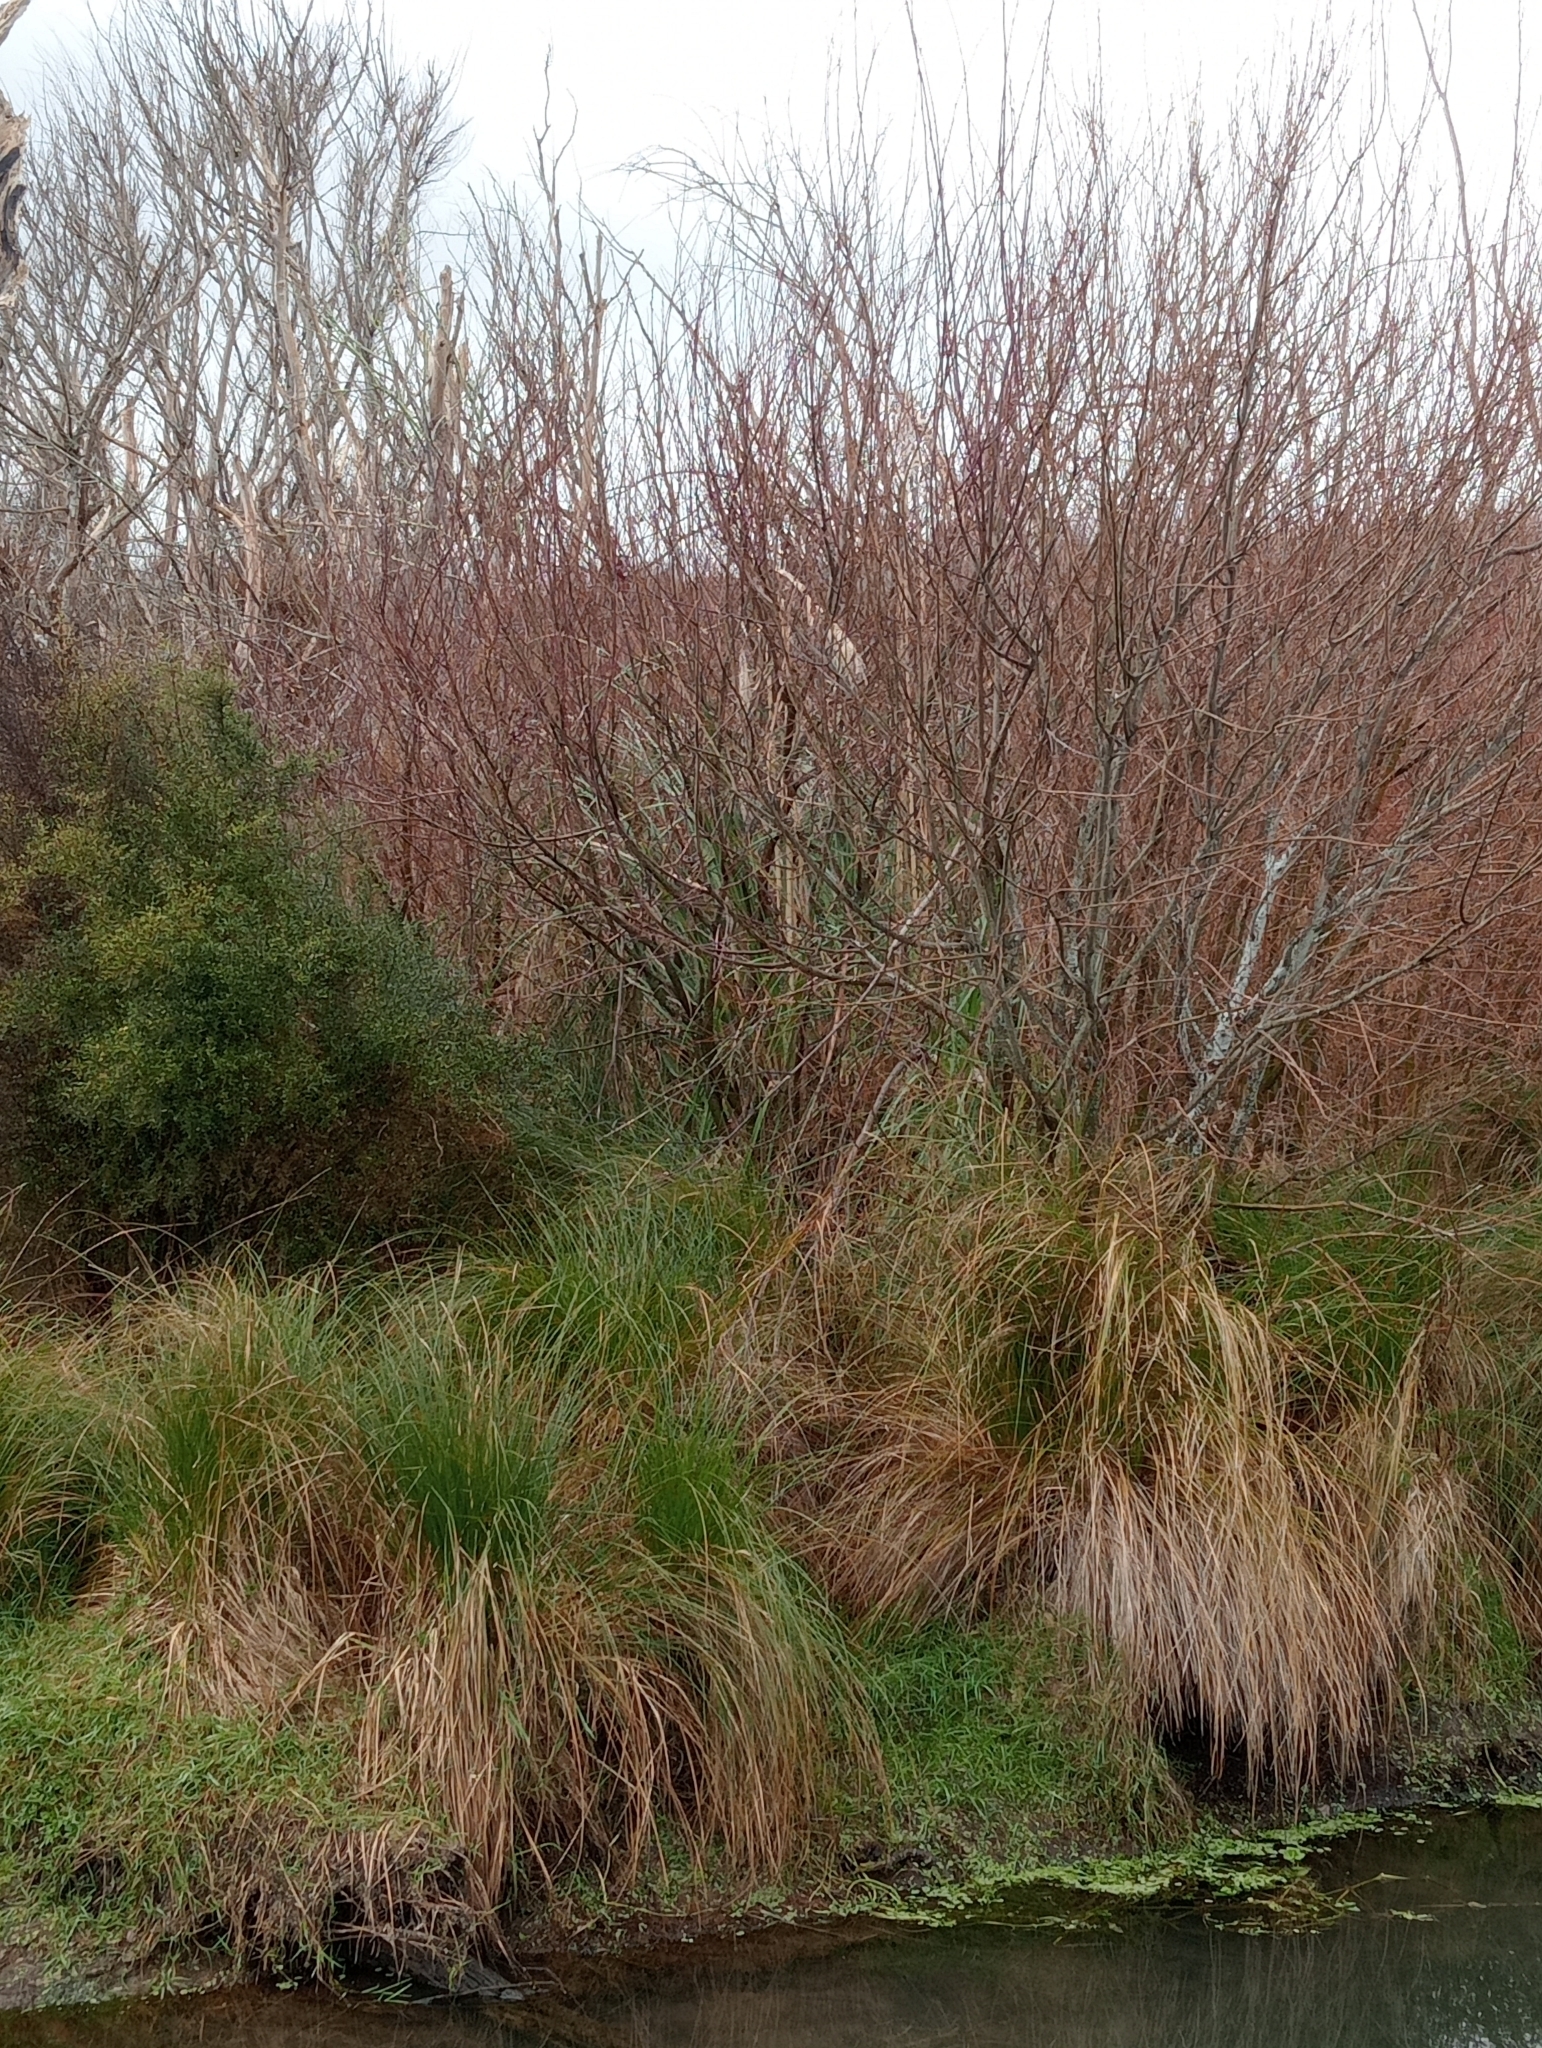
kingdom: Plantae
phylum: Tracheophyta
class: Liliopsida
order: Poales
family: Poaceae
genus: Austroderia
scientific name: Austroderia richardii
